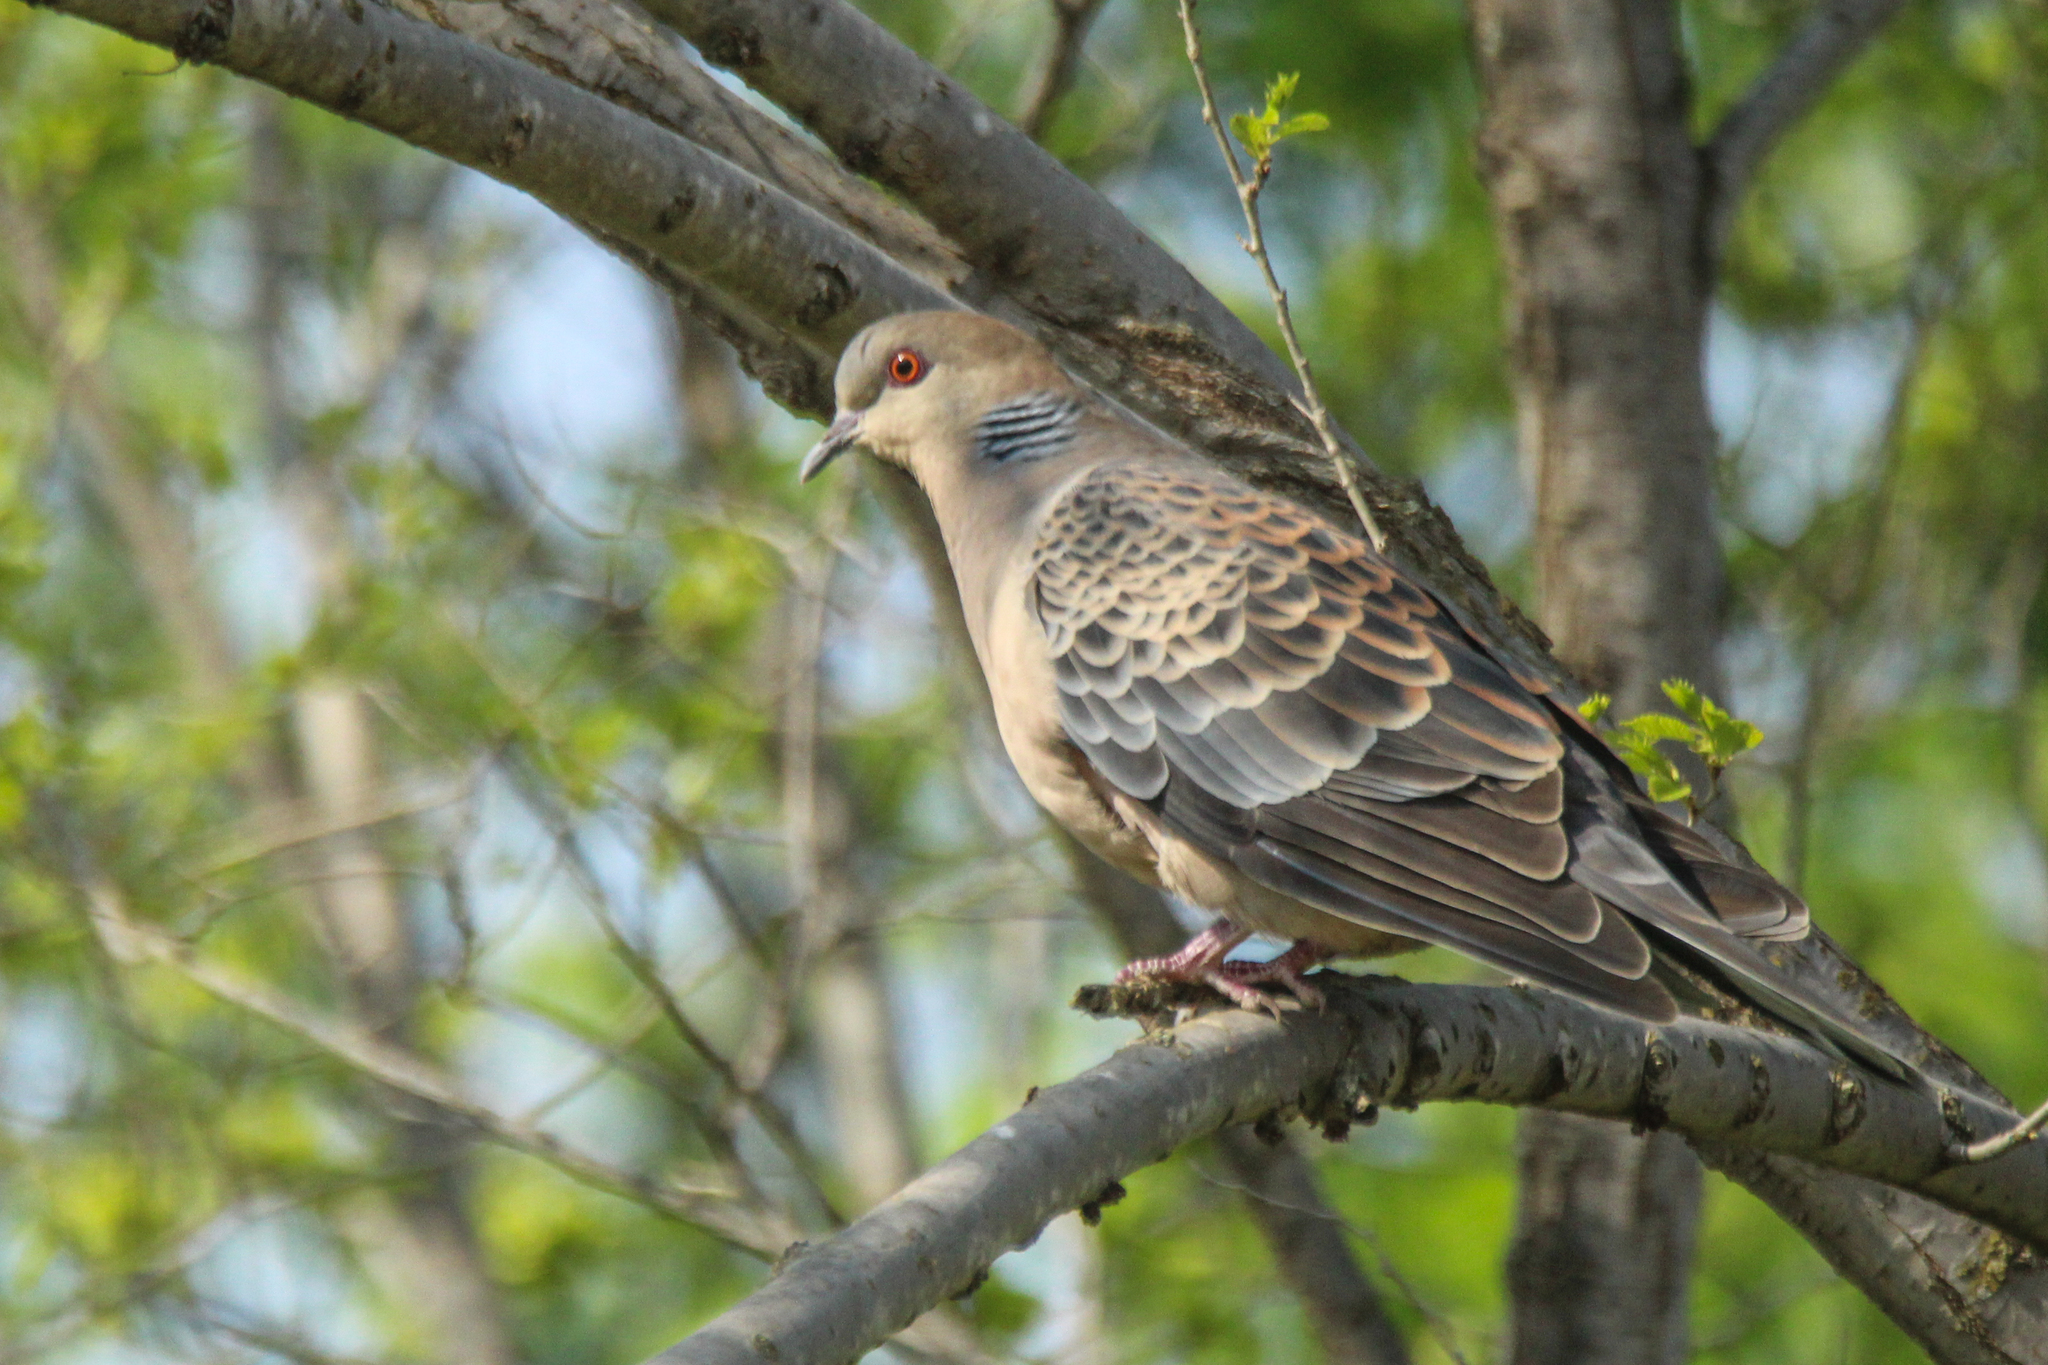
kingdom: Animalia
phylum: Chordata
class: Aves
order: Columbiformes
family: Columbidae
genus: Streptopelia
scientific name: Streptopelia orientalis
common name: Oriental turtle dove
